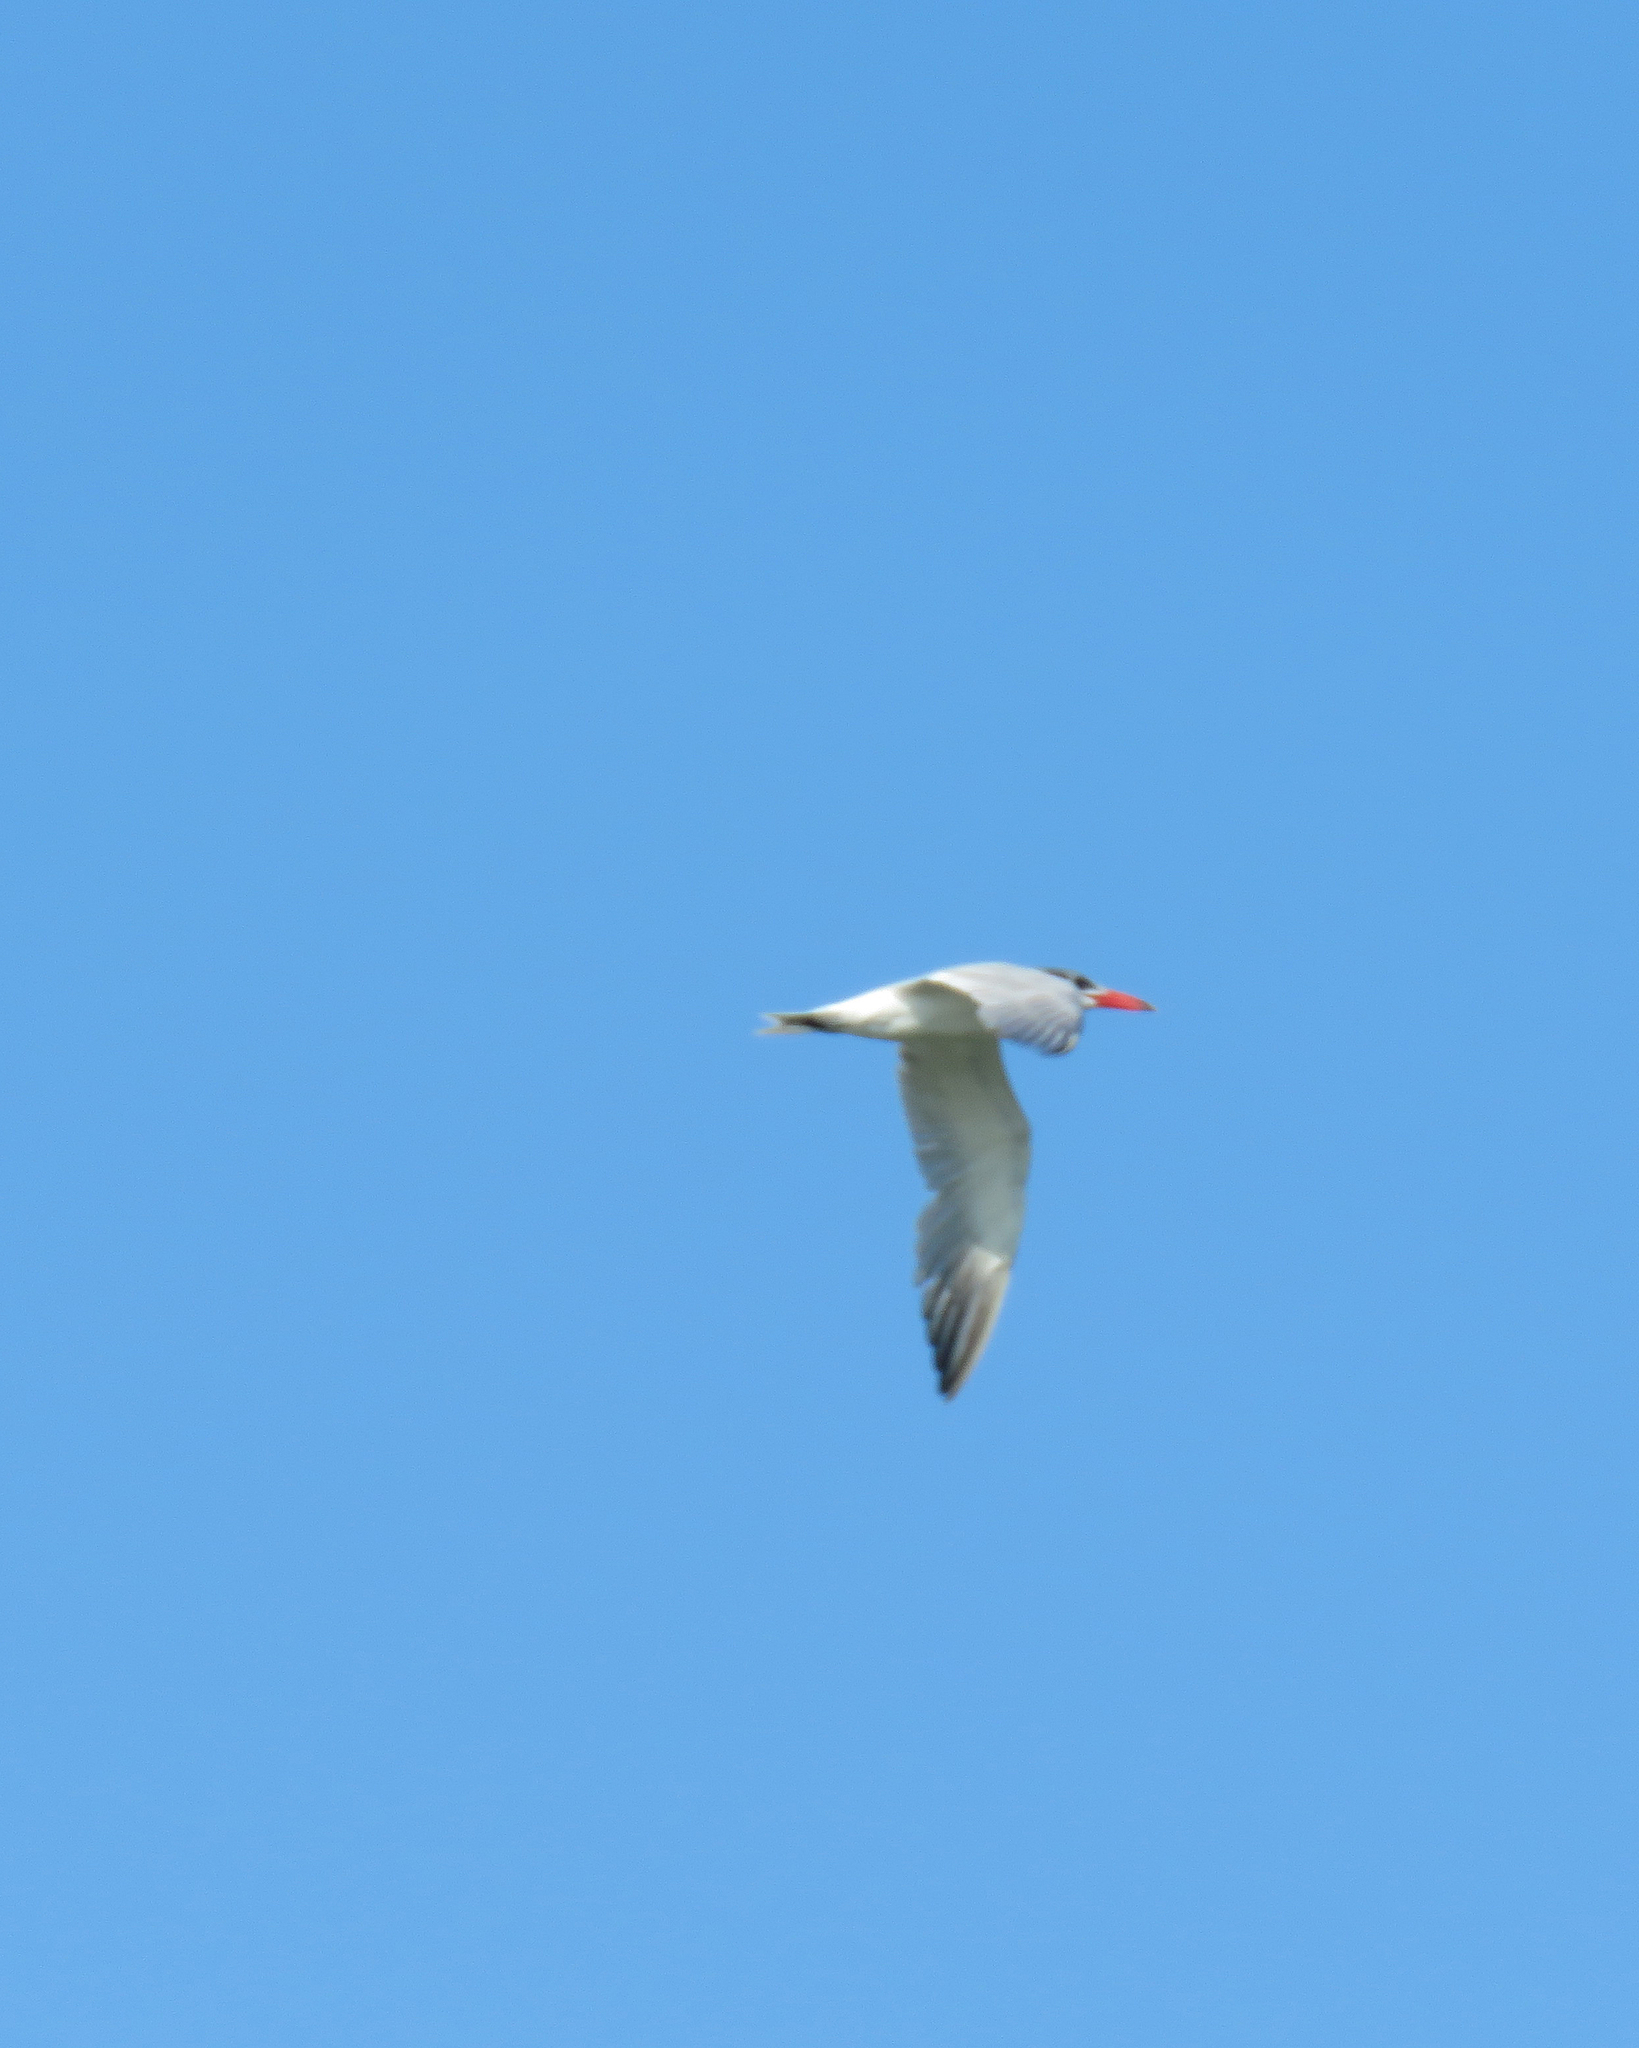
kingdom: Animalia
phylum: Chordata
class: Aves
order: Charadriiformes
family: Laridae
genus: Hydroprogne
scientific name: Hydroprogne caspia
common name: Caspian tern
